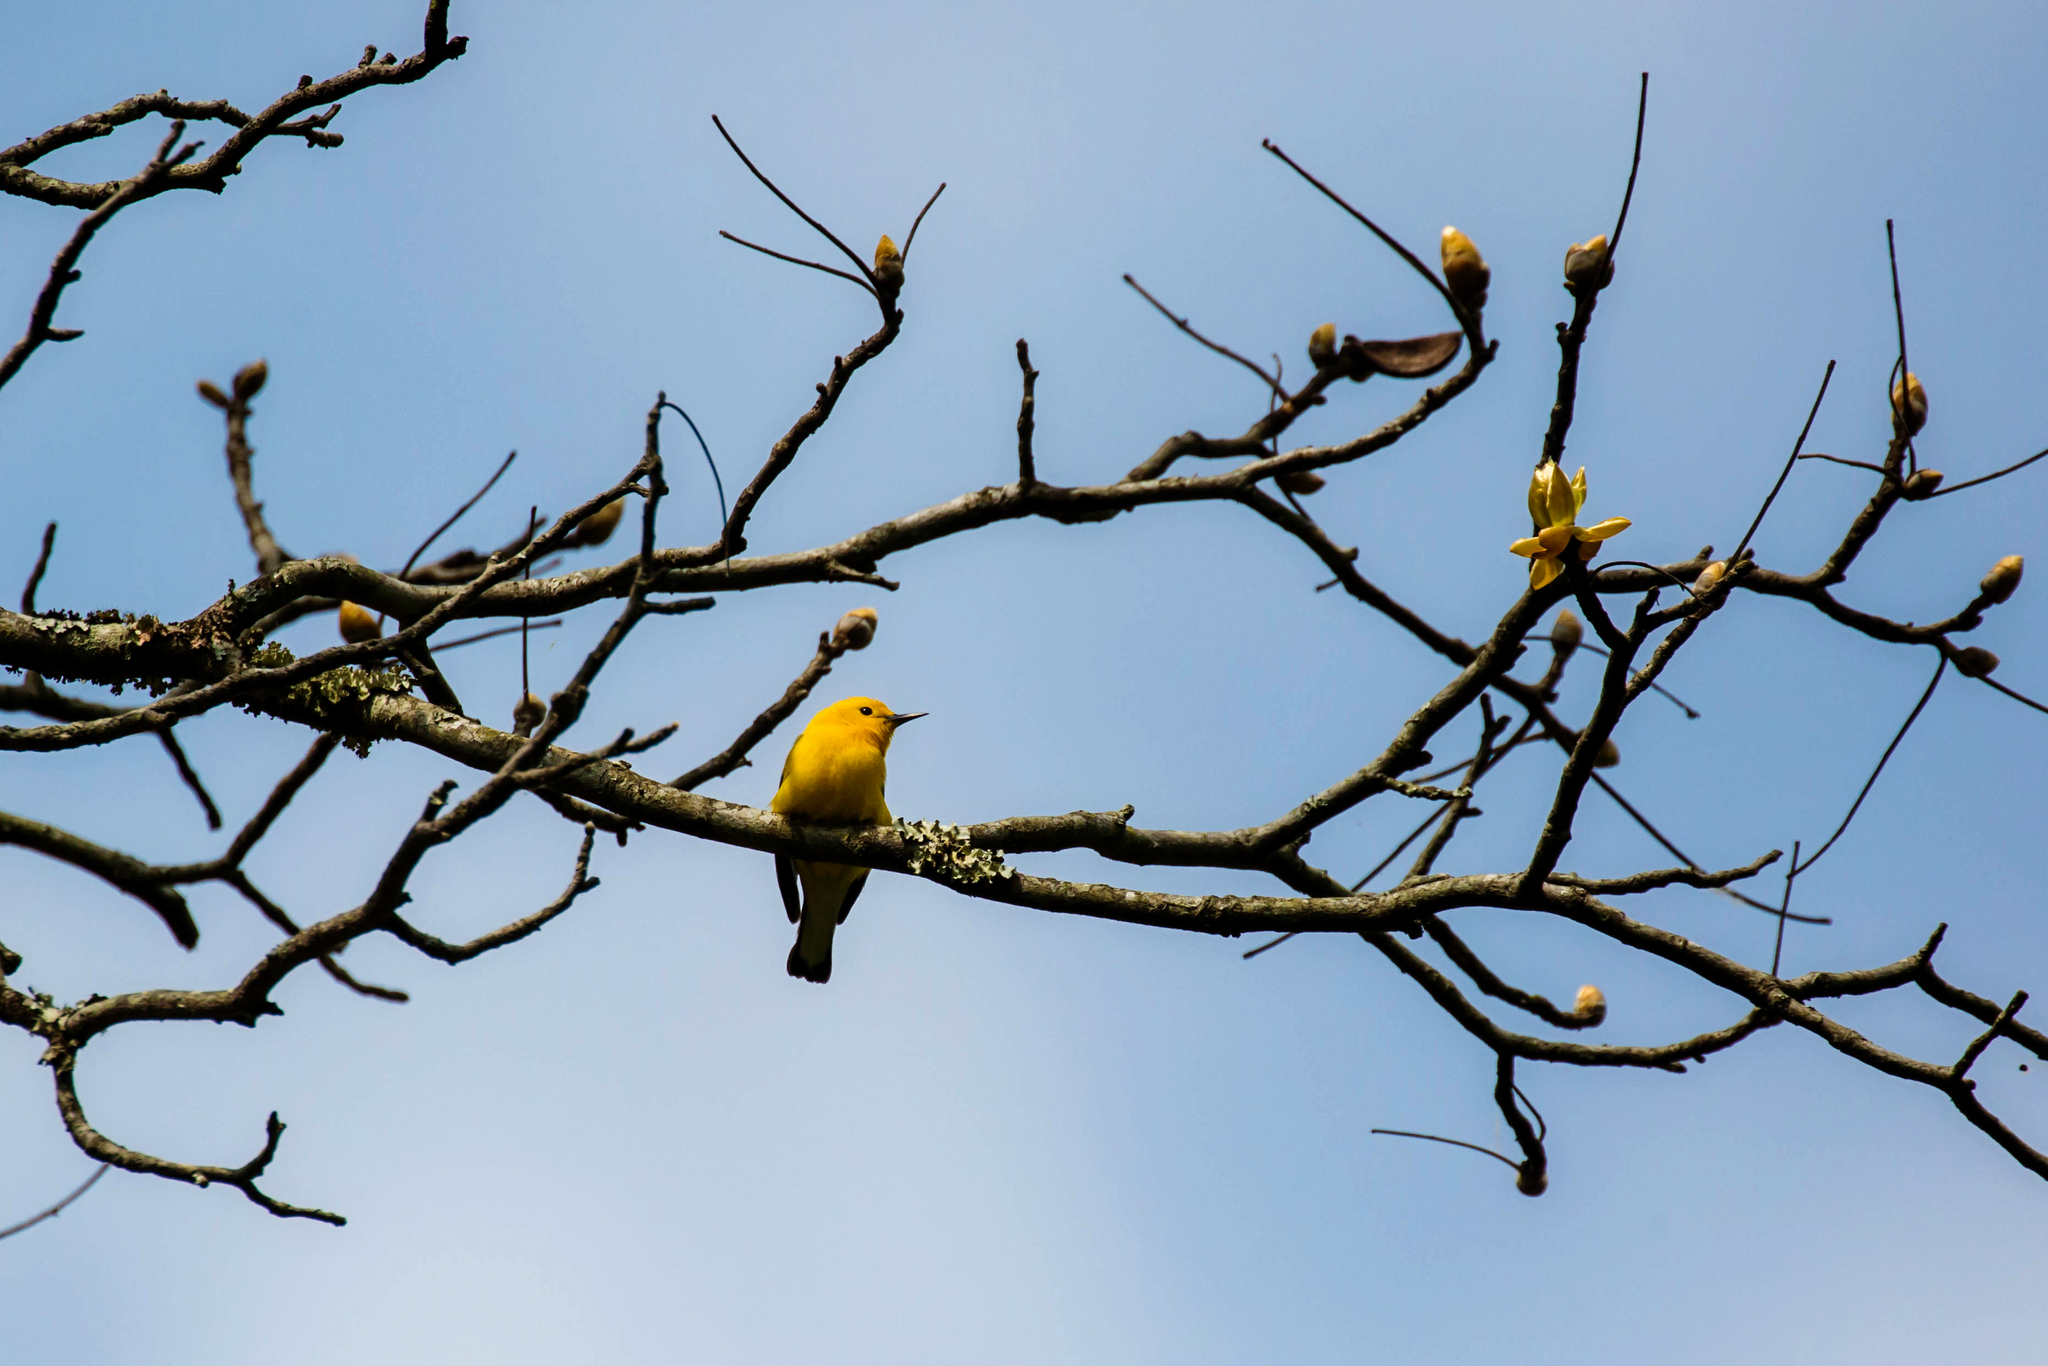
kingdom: Animalia
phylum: Chordata
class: Aves
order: Passeriformes
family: Parulidae
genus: Protonotaria
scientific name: Protonotaria citrea
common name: Prothonotary warbler
